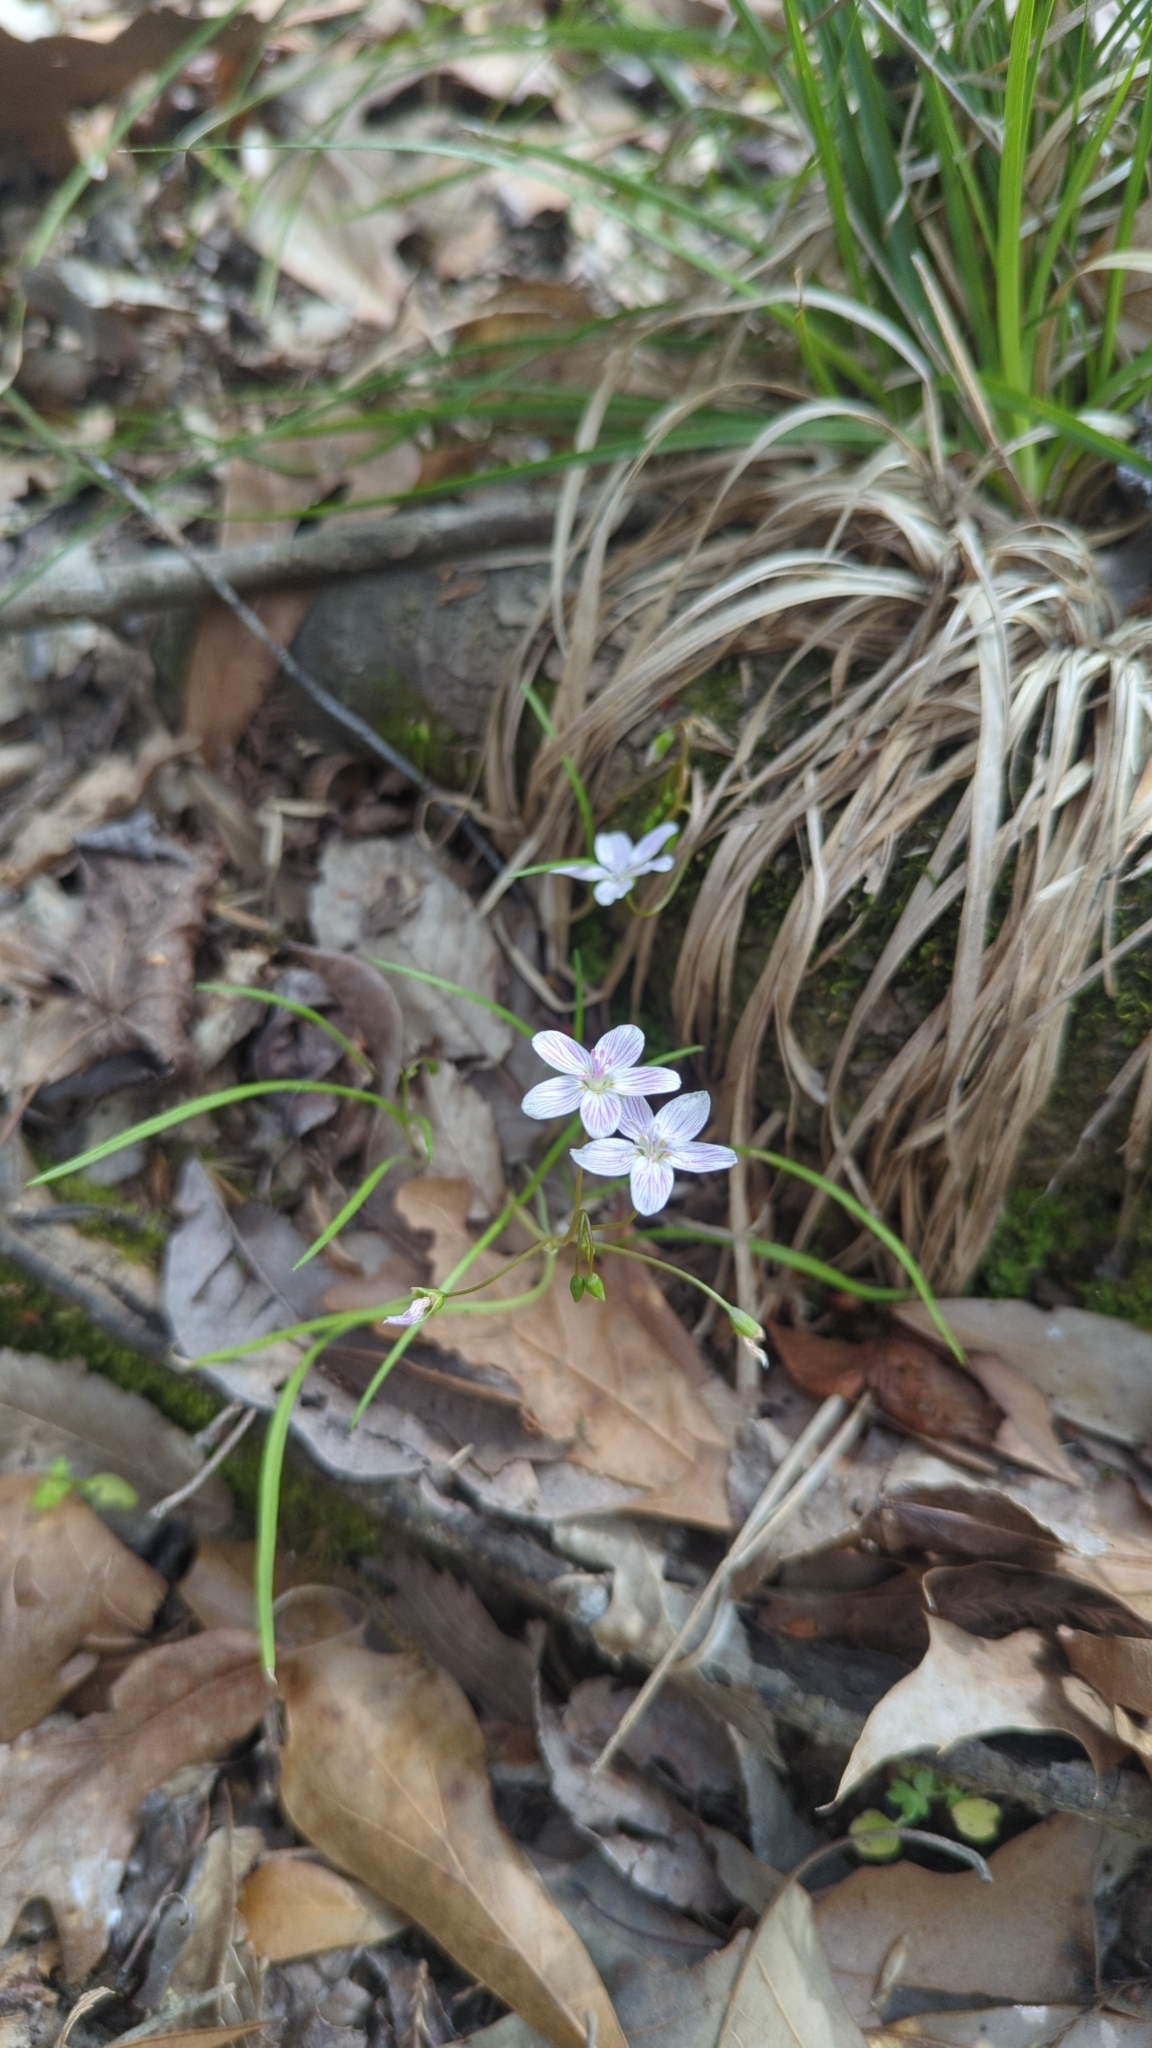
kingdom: Plantae
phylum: Tracheophyta
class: Magnoliopsida
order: Caryophyllales
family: Montiaceae
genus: Claytonia
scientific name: Claytonia virginica
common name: Virginia springbeauty
